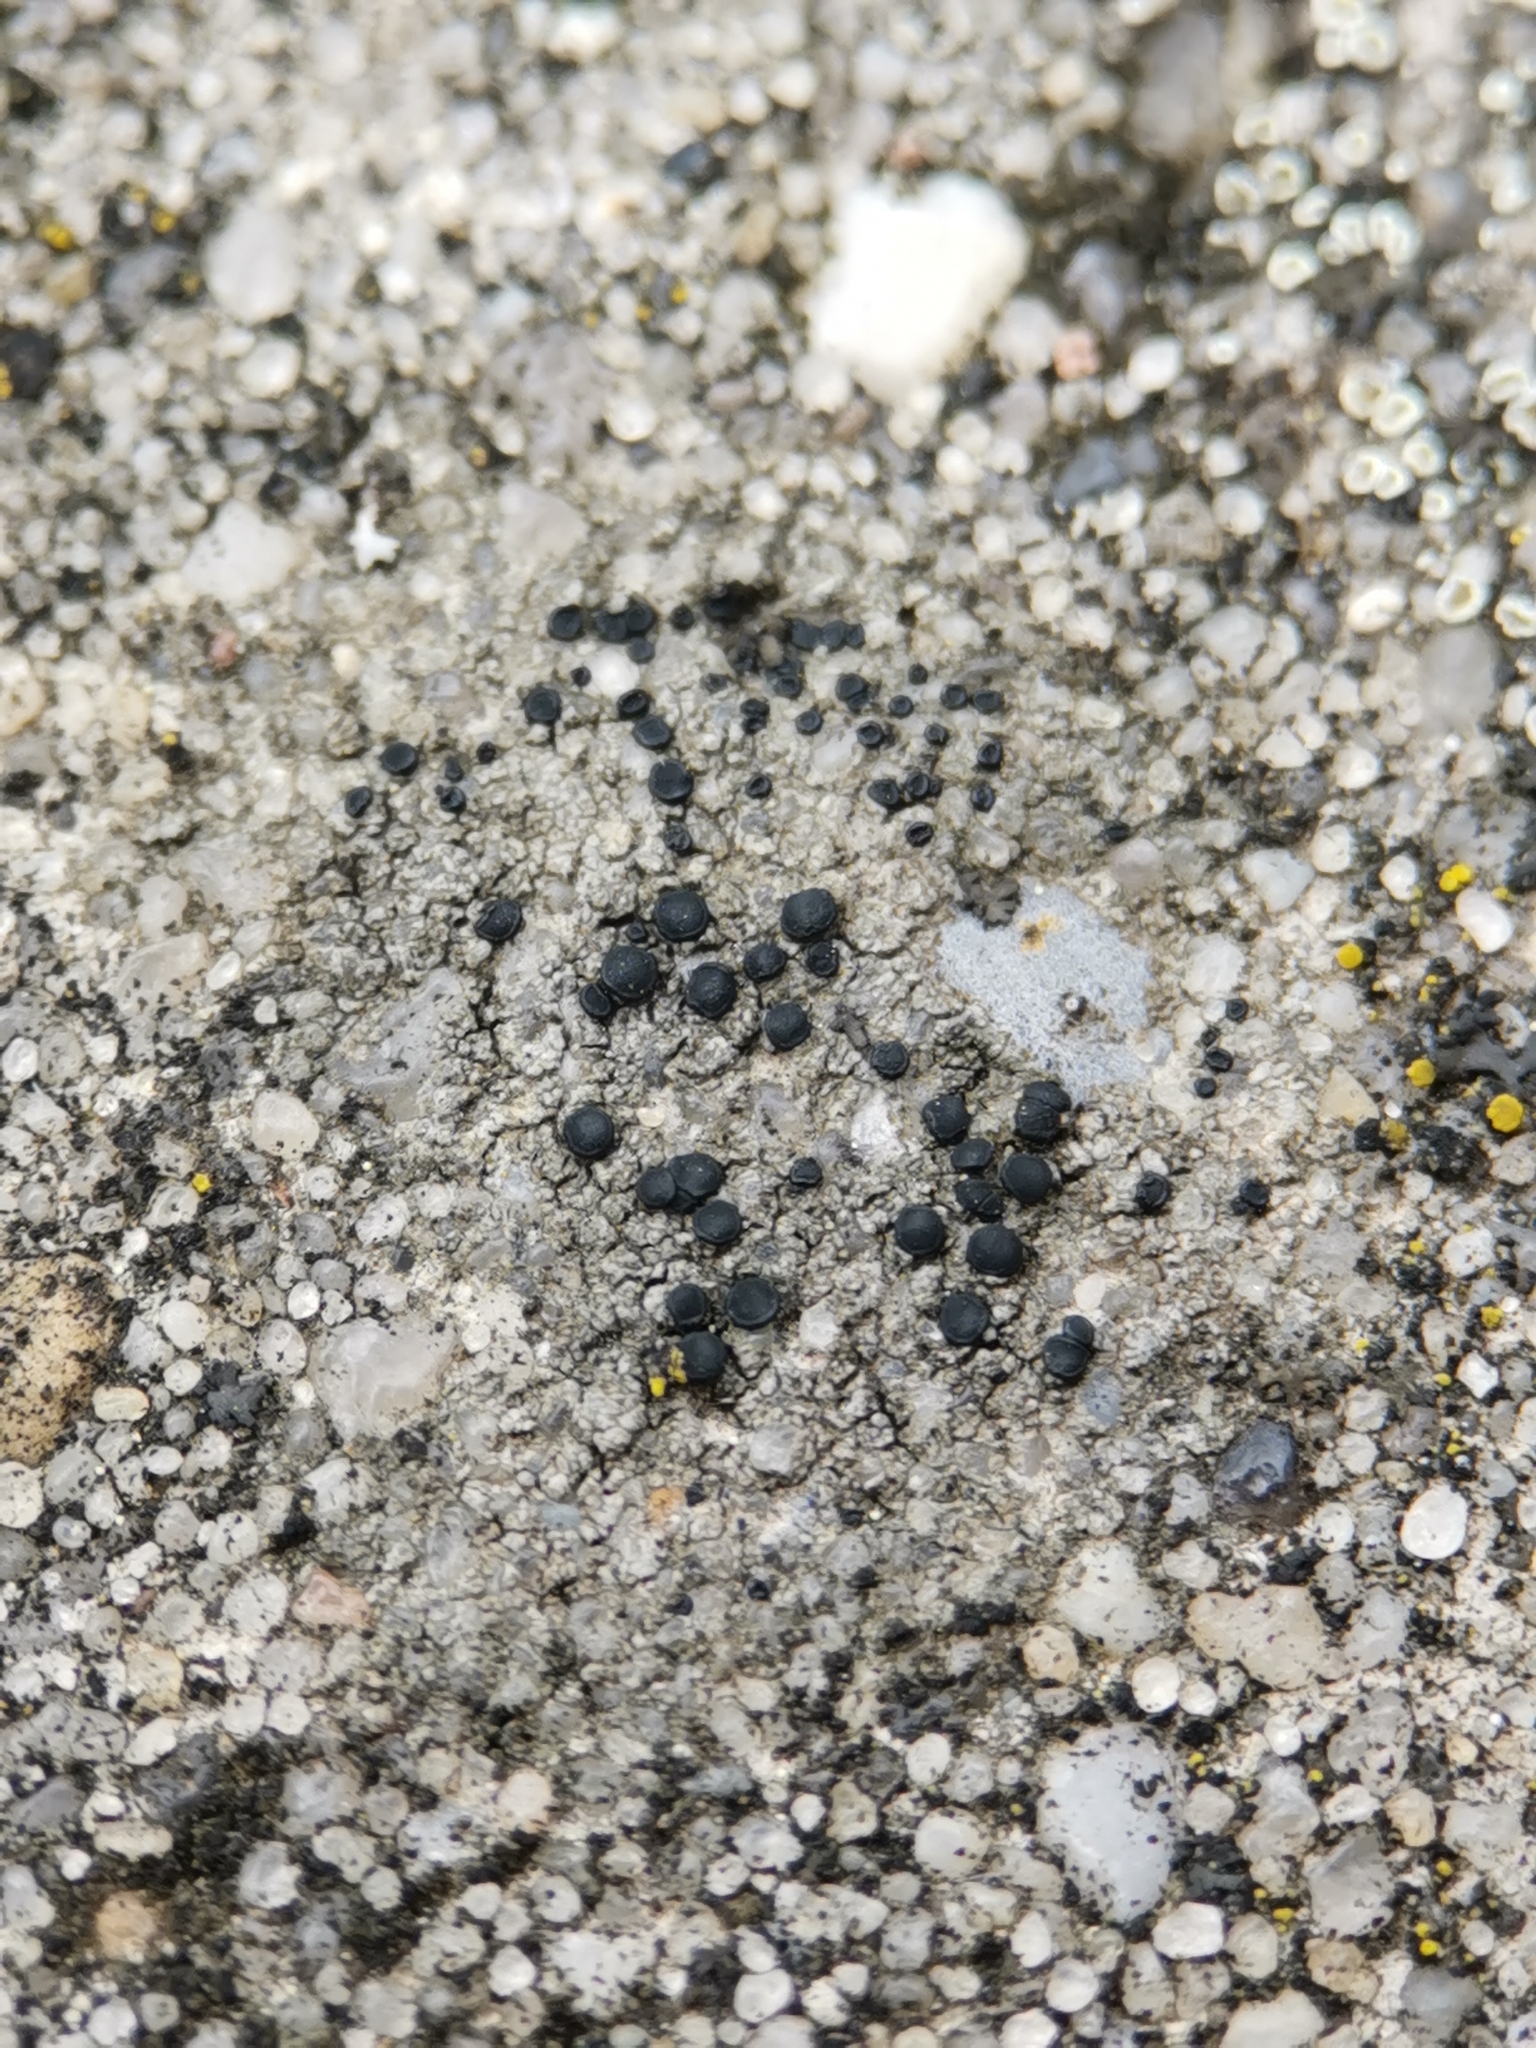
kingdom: Fungi
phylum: Ascomycota
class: Lecanoromycetes
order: Lecanorales
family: Lecanoraceae
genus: Lecidella
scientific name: Lecidella stigmatea
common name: Limestone disc lichen
